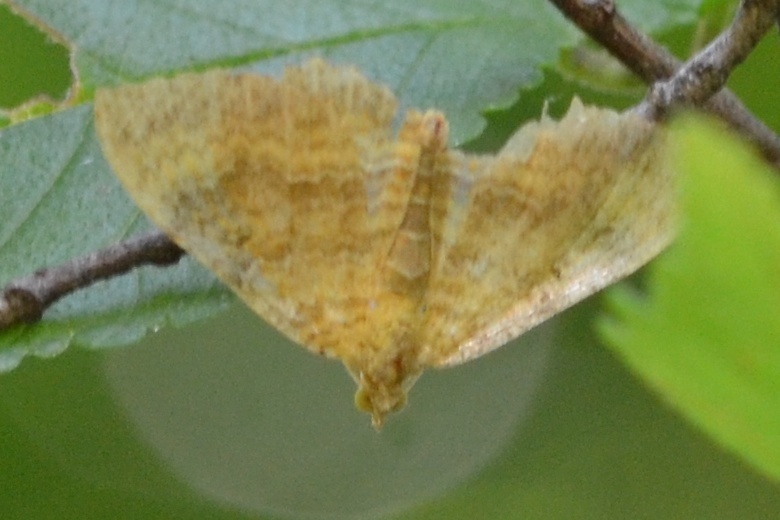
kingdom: Animalia
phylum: Arthropoda
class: Insecta
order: Lepidoptera
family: Geometridae
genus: Camptogramma
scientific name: Camptogramma bilineata
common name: Yellow shell
